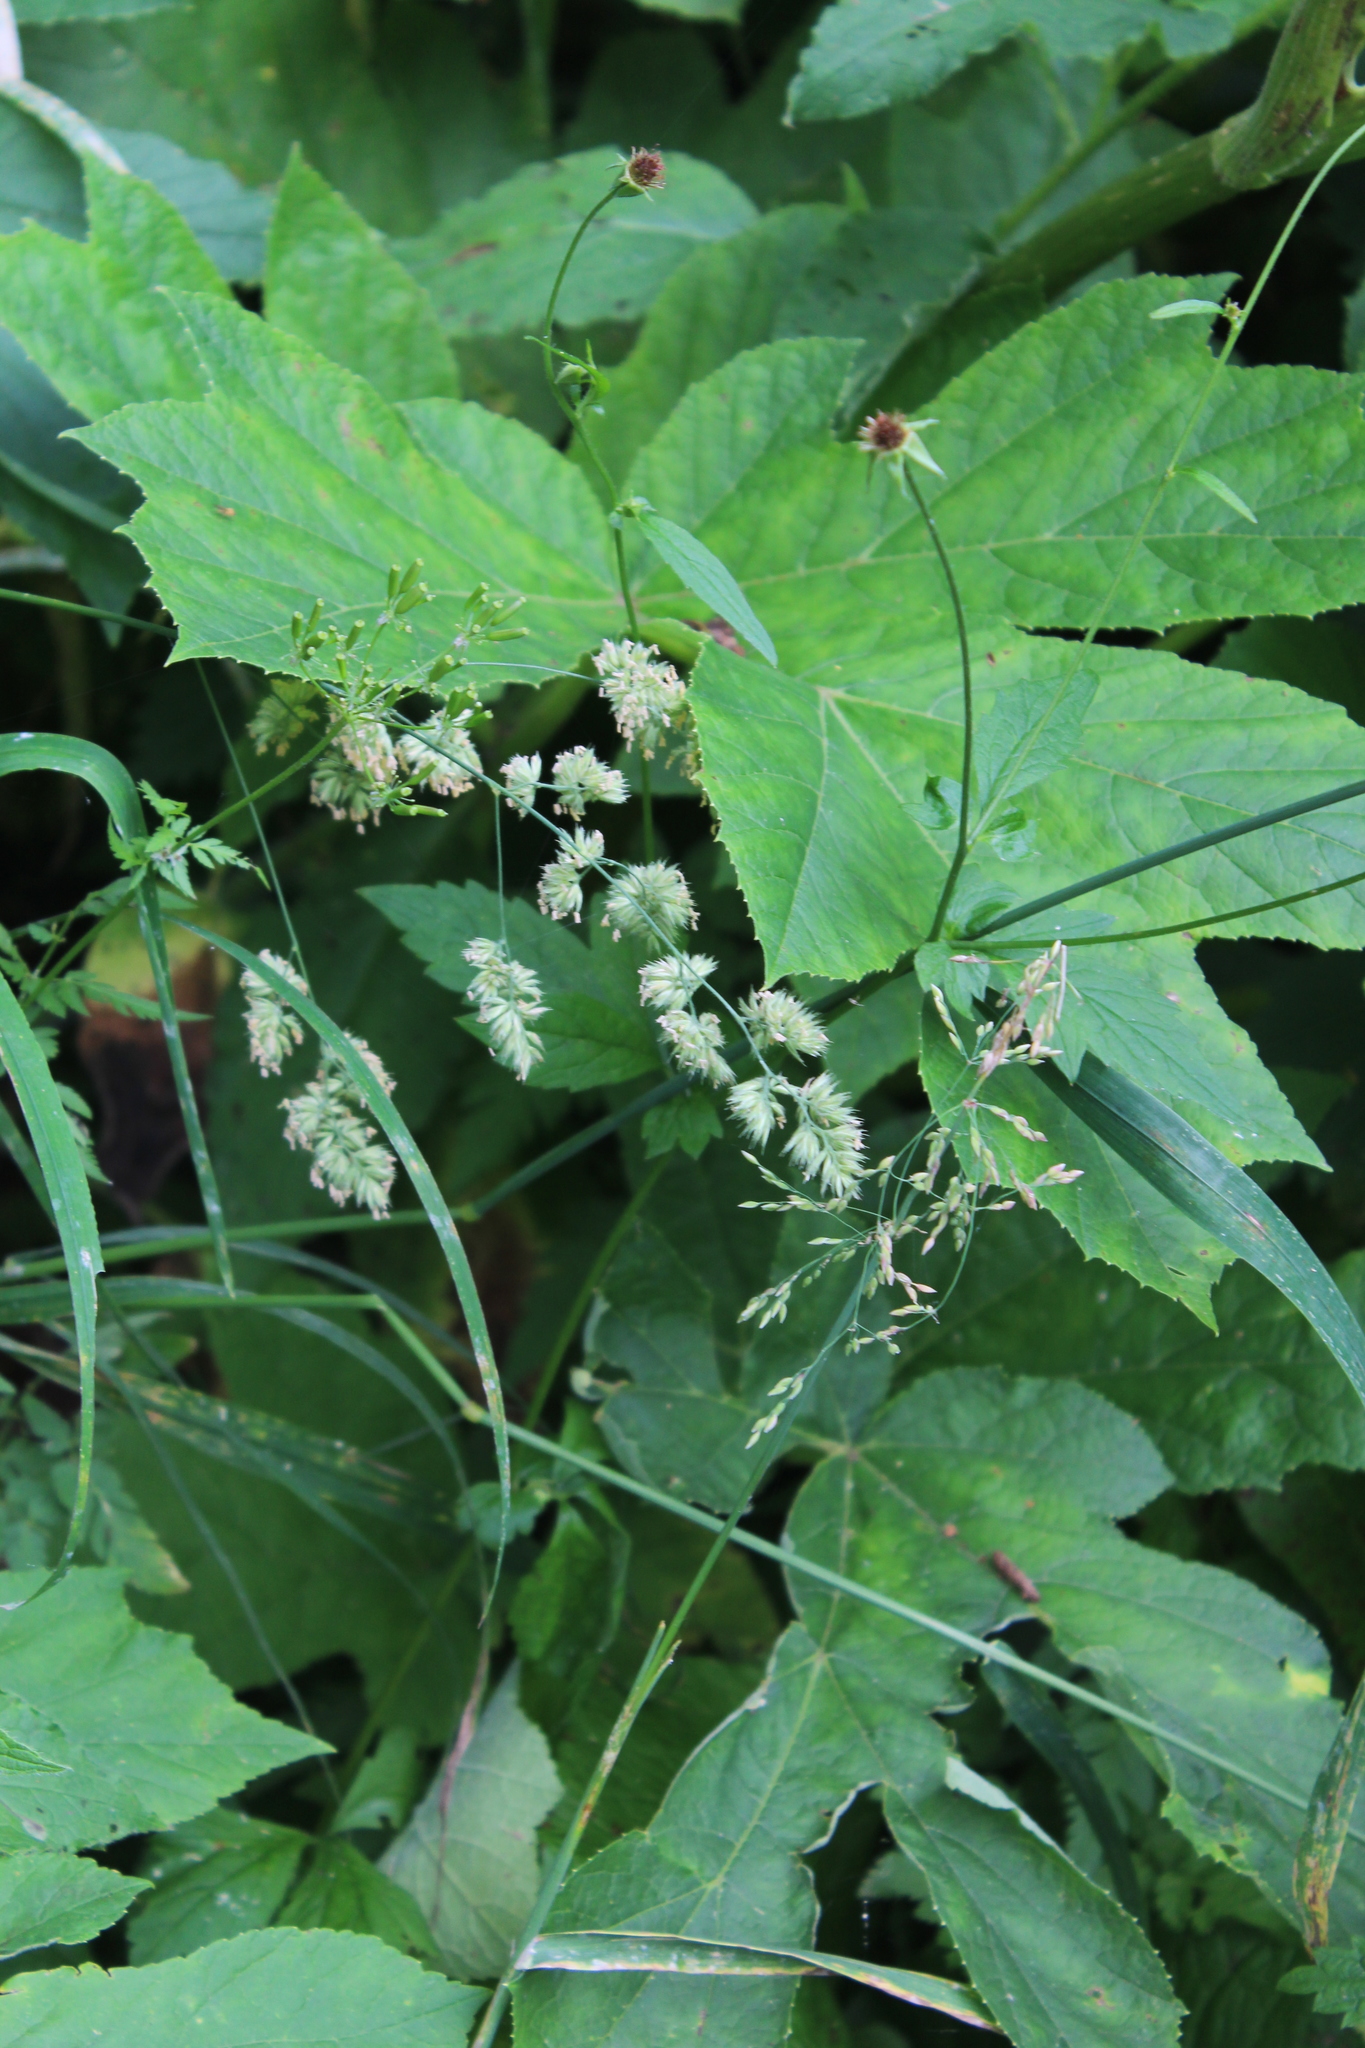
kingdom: Plantae
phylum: Tracheophyta
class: Liliopsida
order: Poales
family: Poaceae
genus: Dactylis
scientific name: Dactylis glomerata
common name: Orchardgrass
